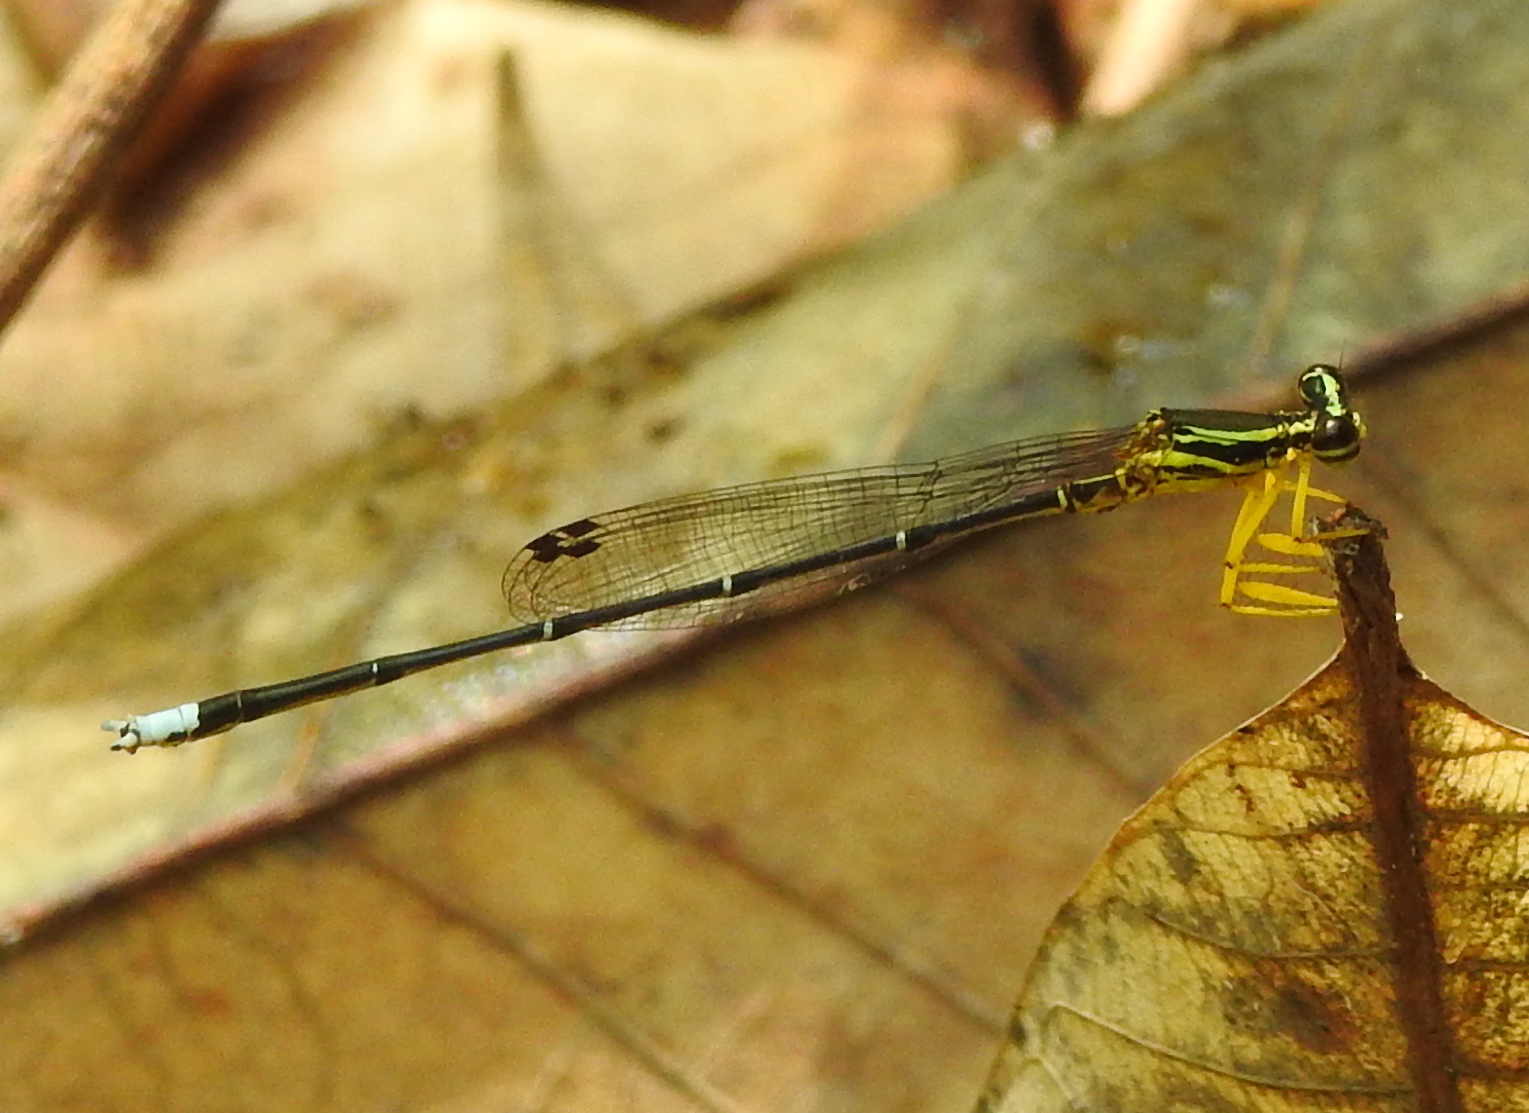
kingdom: Animalia
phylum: Arthropoda
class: Insecta
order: Odonata
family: Platycnemididae
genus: Copera
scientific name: Copera marginipes
